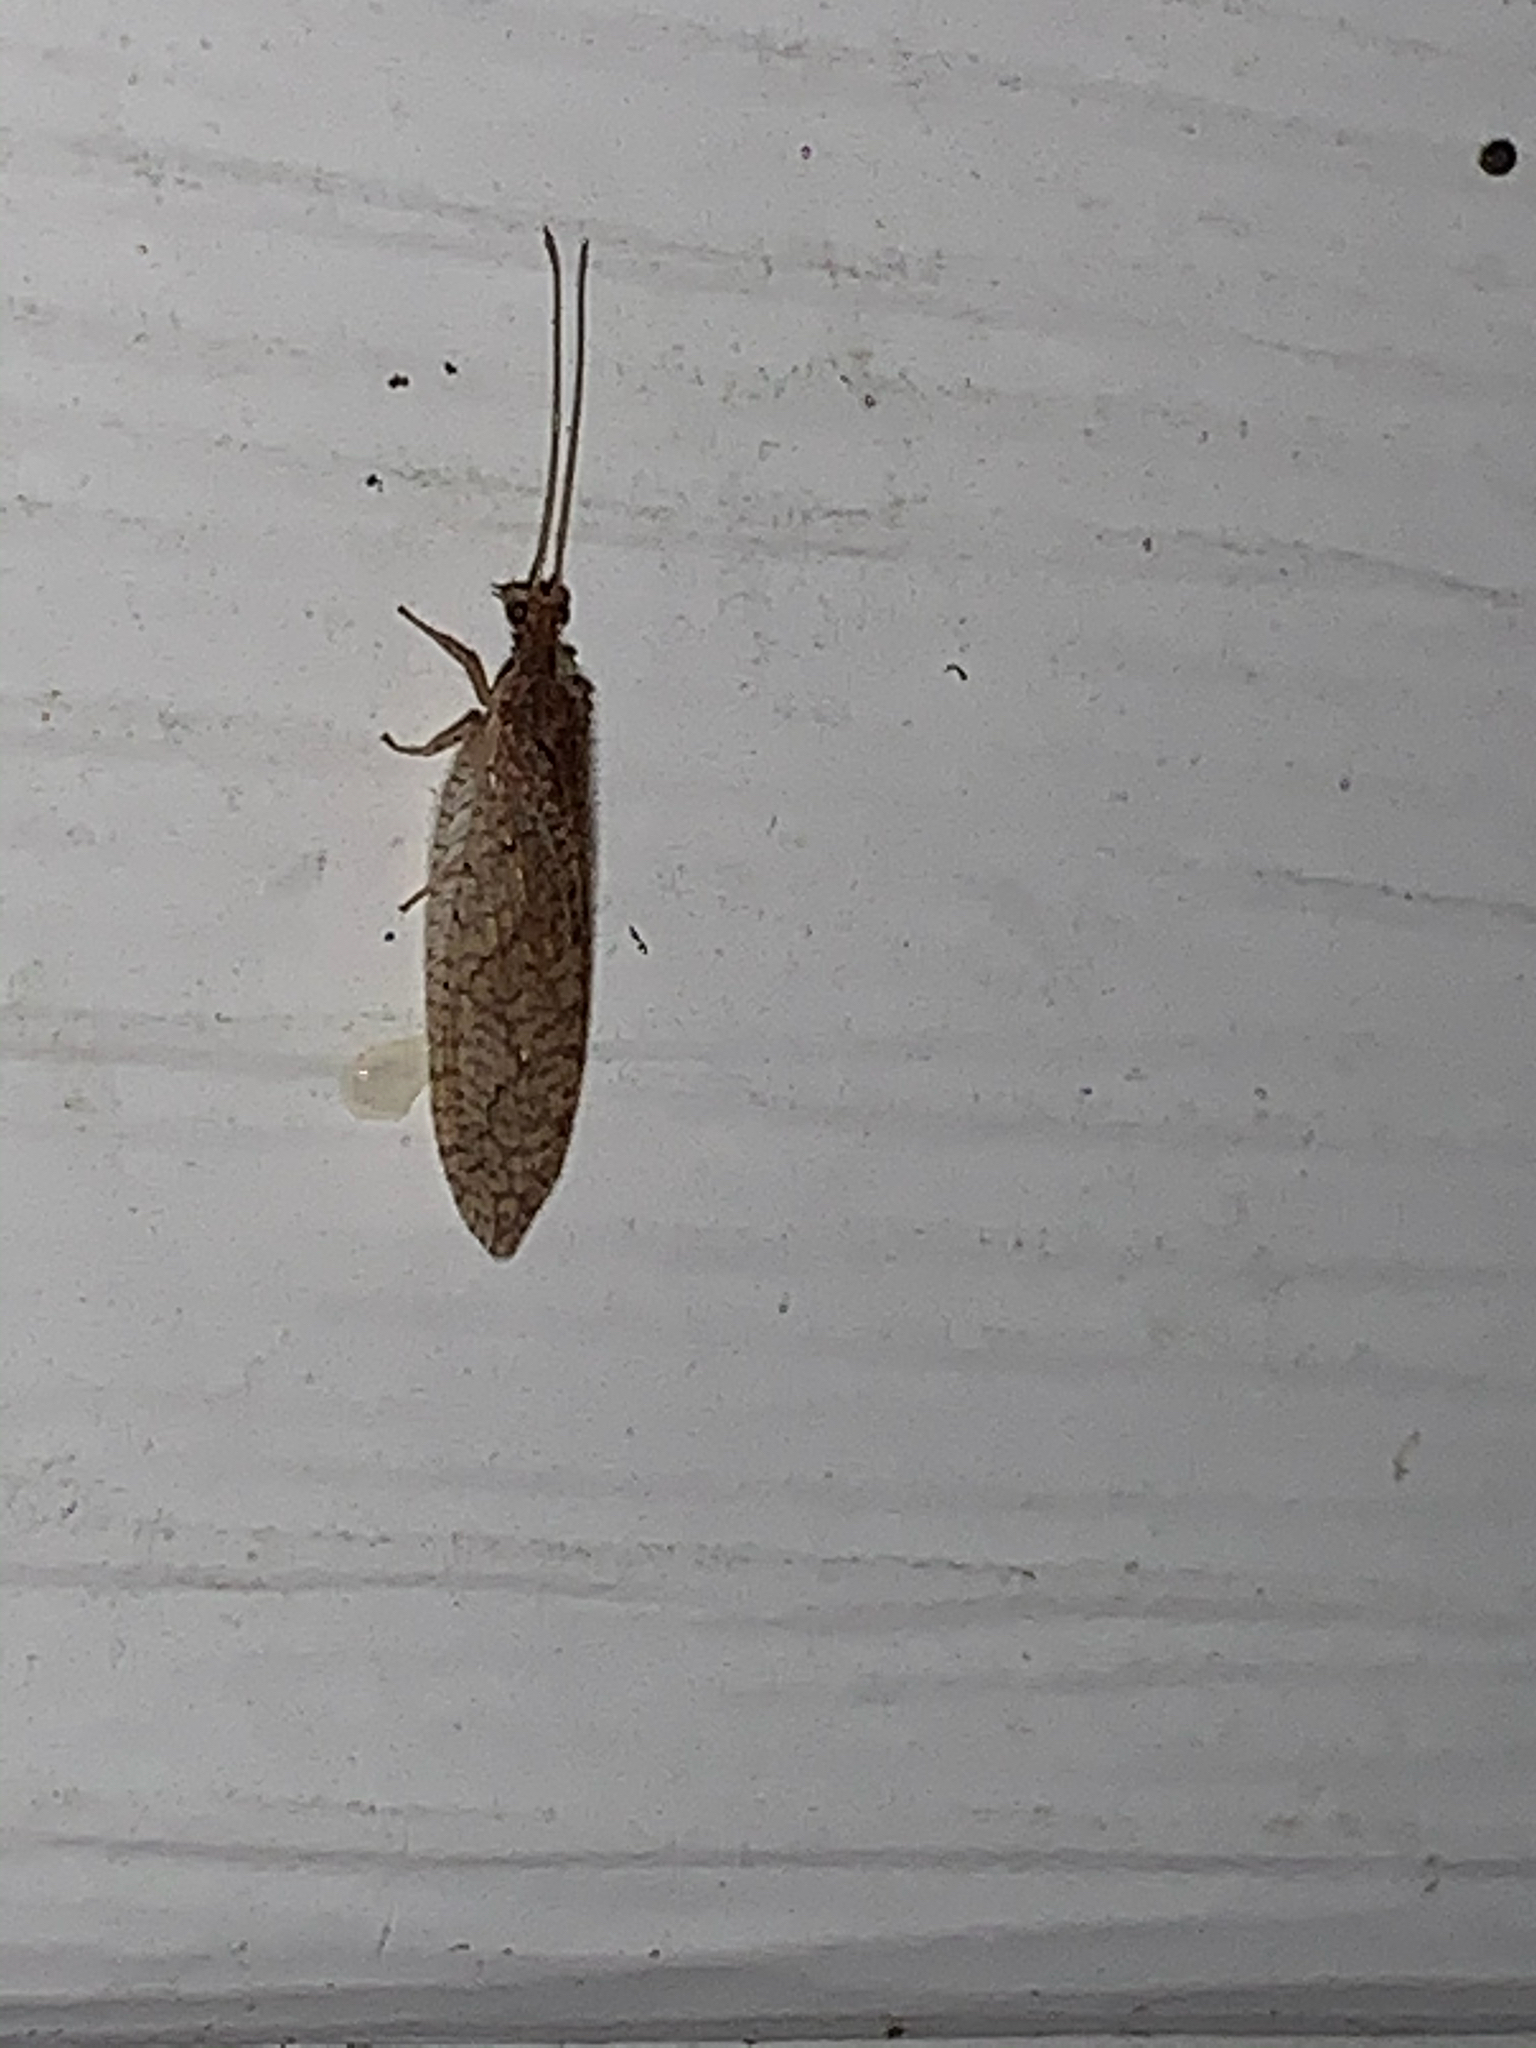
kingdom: Animalia
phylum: Arthropoda
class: Insecta
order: Neuroptera
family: Hemerobiidae
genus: Micromus
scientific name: Micromus posticus
